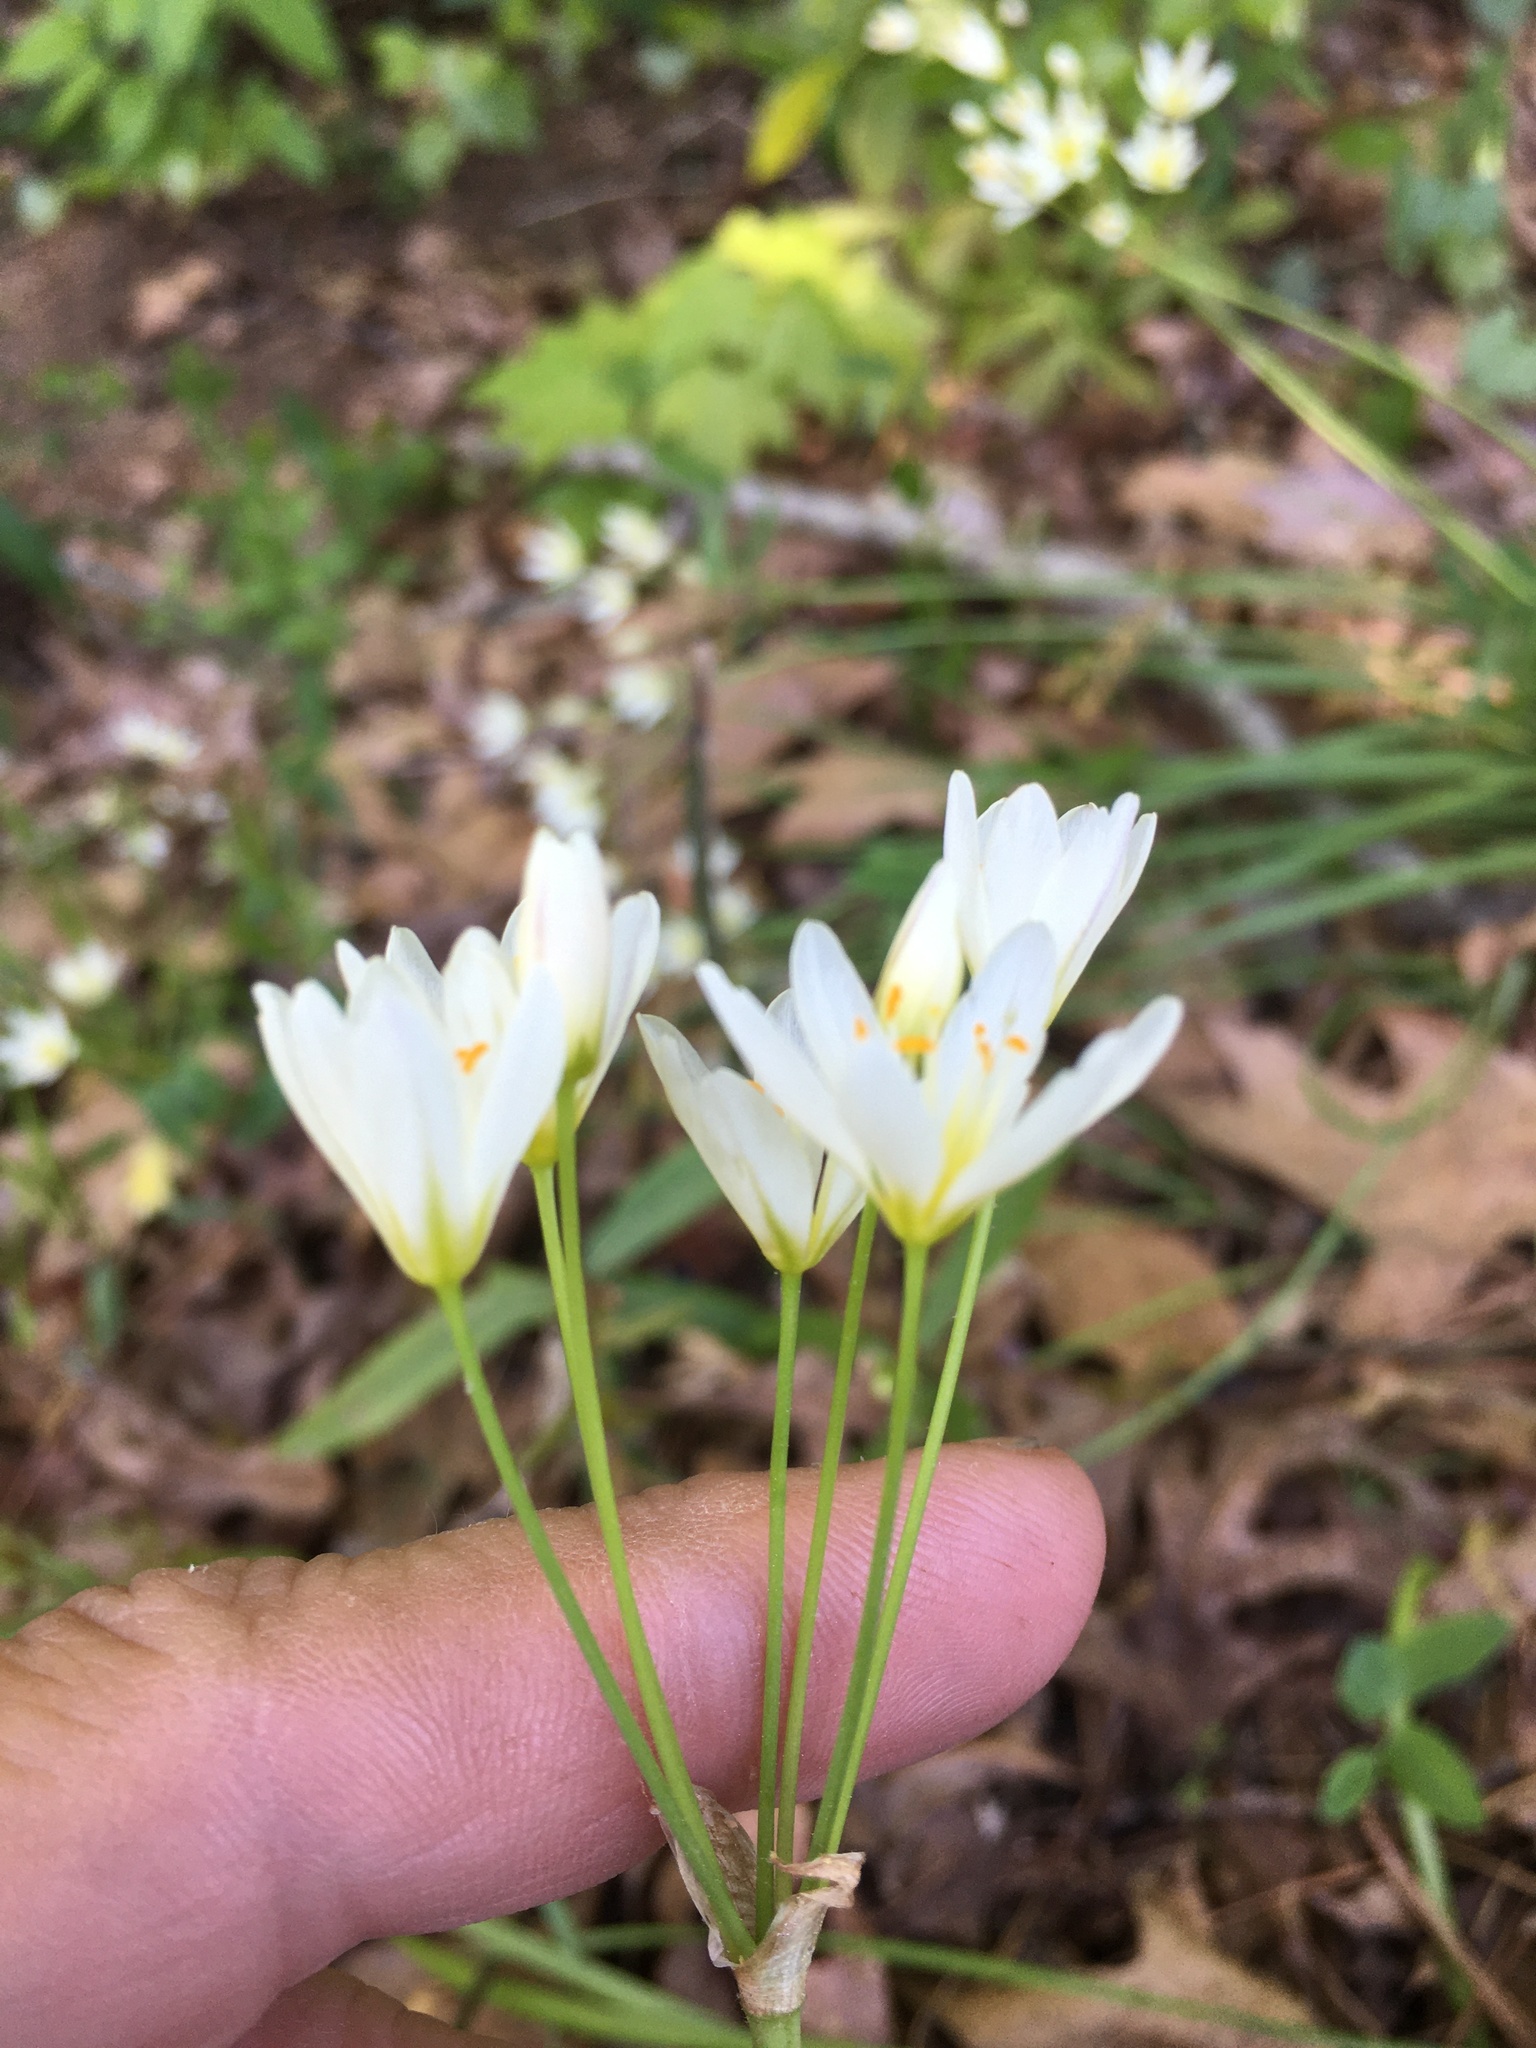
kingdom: Plantae
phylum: Tracheophyta
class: Liliopsida
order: Asparagales
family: Amaryllidaceae
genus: Nothoscordum
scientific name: Nothoscordum bivalve
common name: Crow-poison
